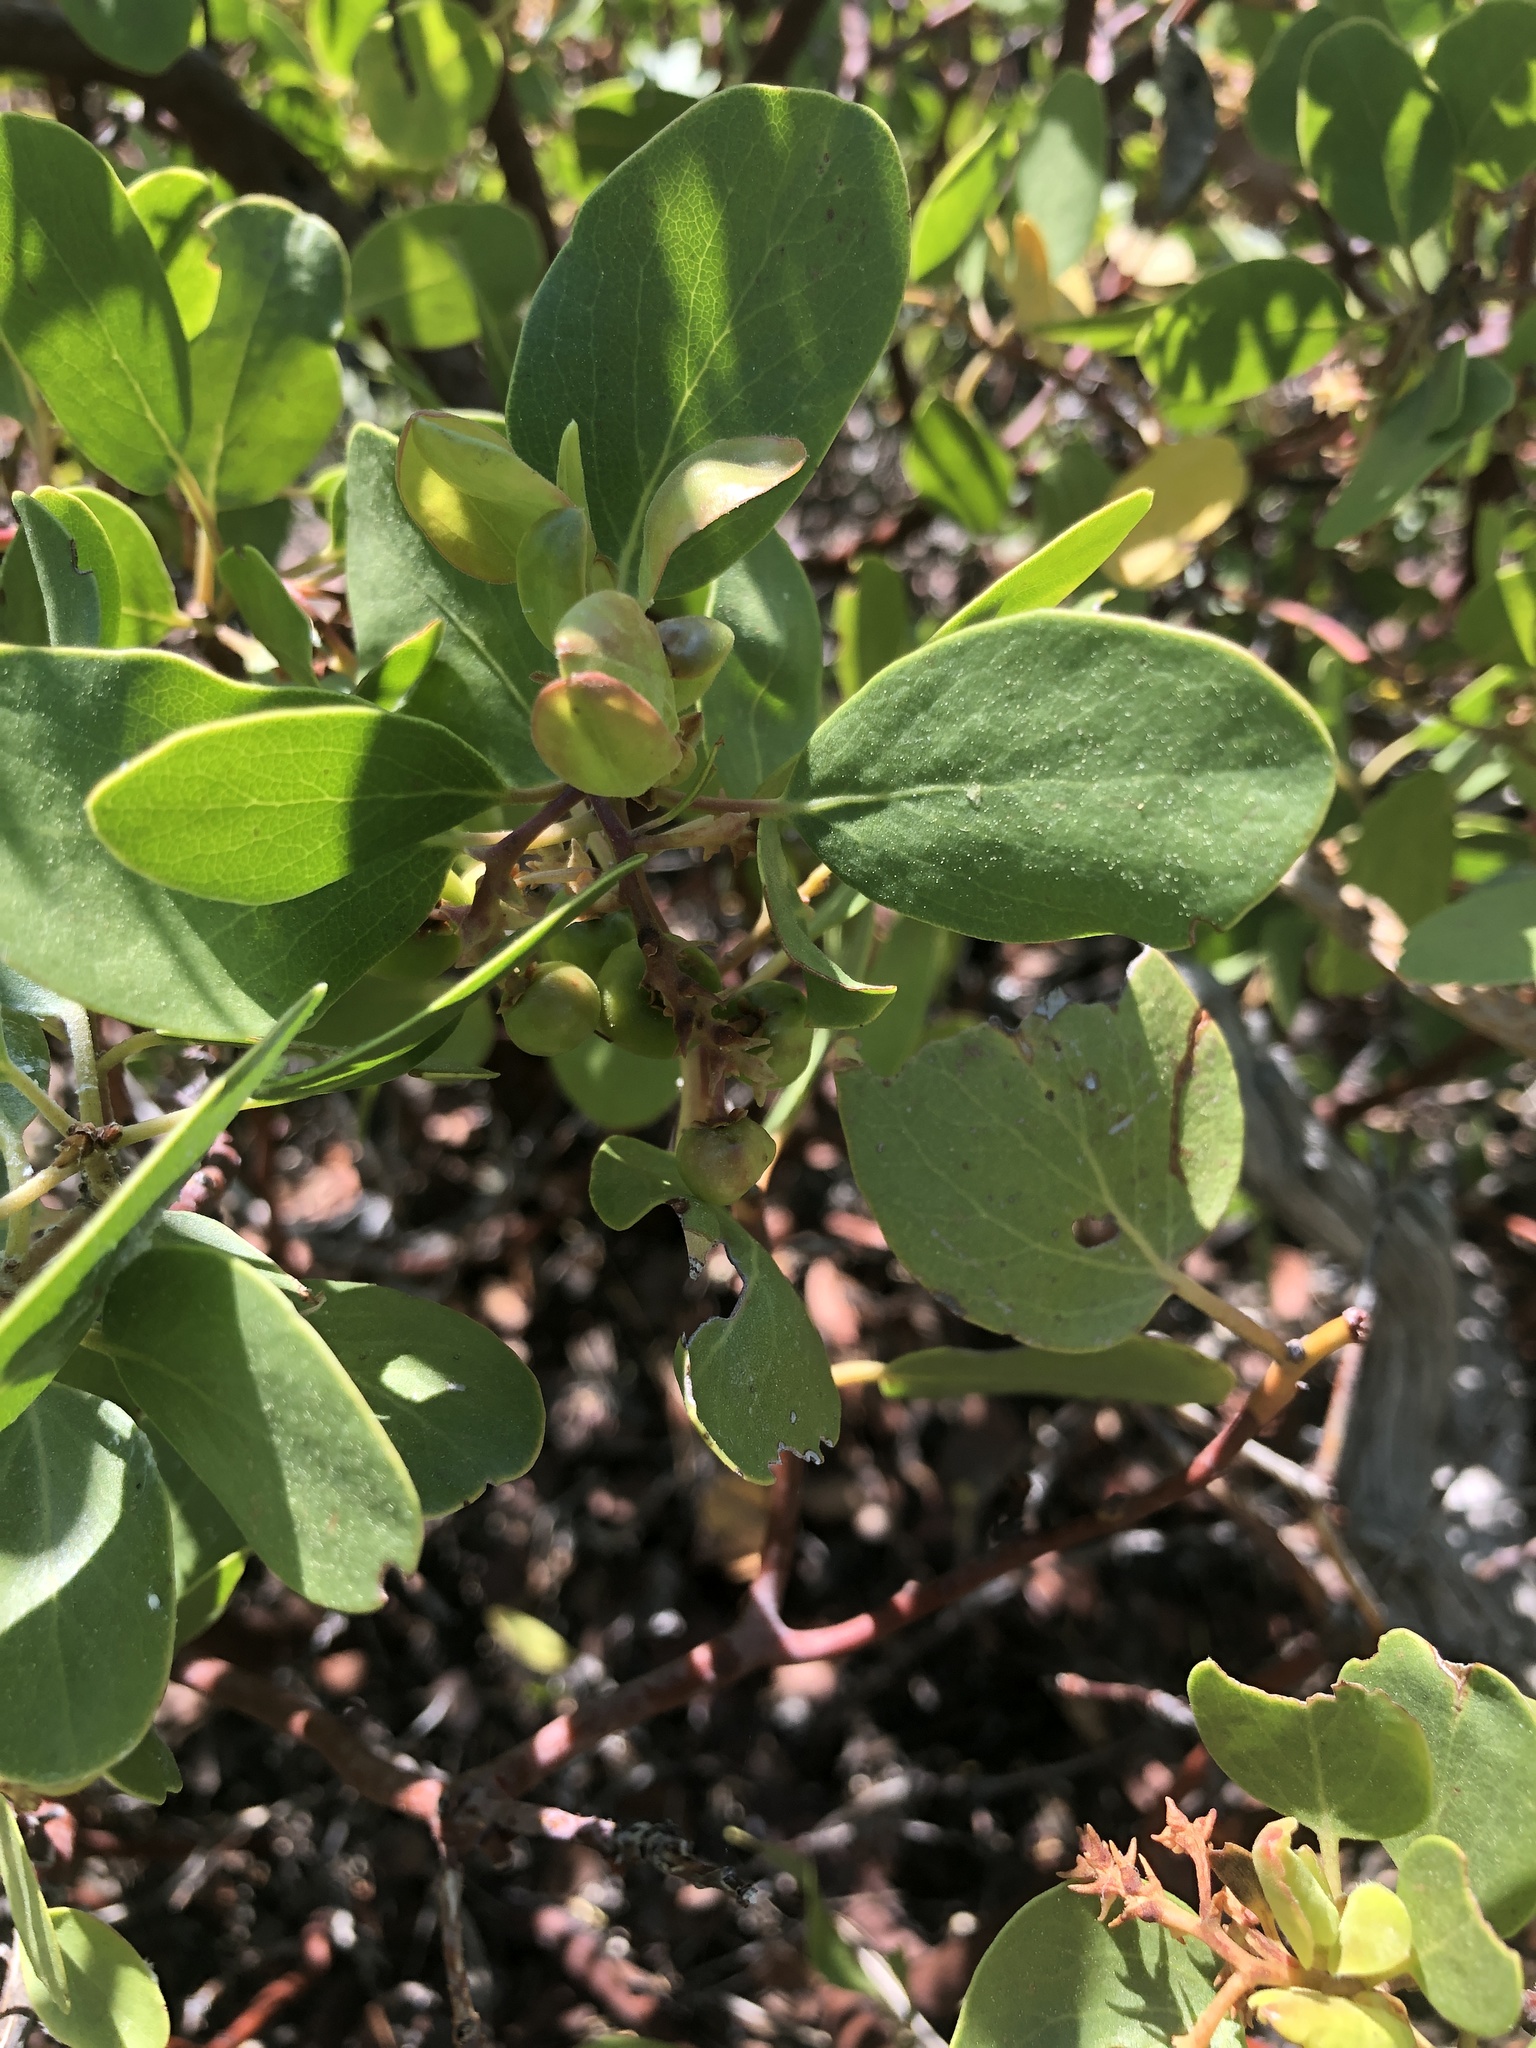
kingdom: Plantae
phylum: Tracheophyta
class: Magnoliopsida
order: Ericales
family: Ericaceae
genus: Arctostaphylos
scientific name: Arctostaphylos patula
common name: Green-leaf manzanita
